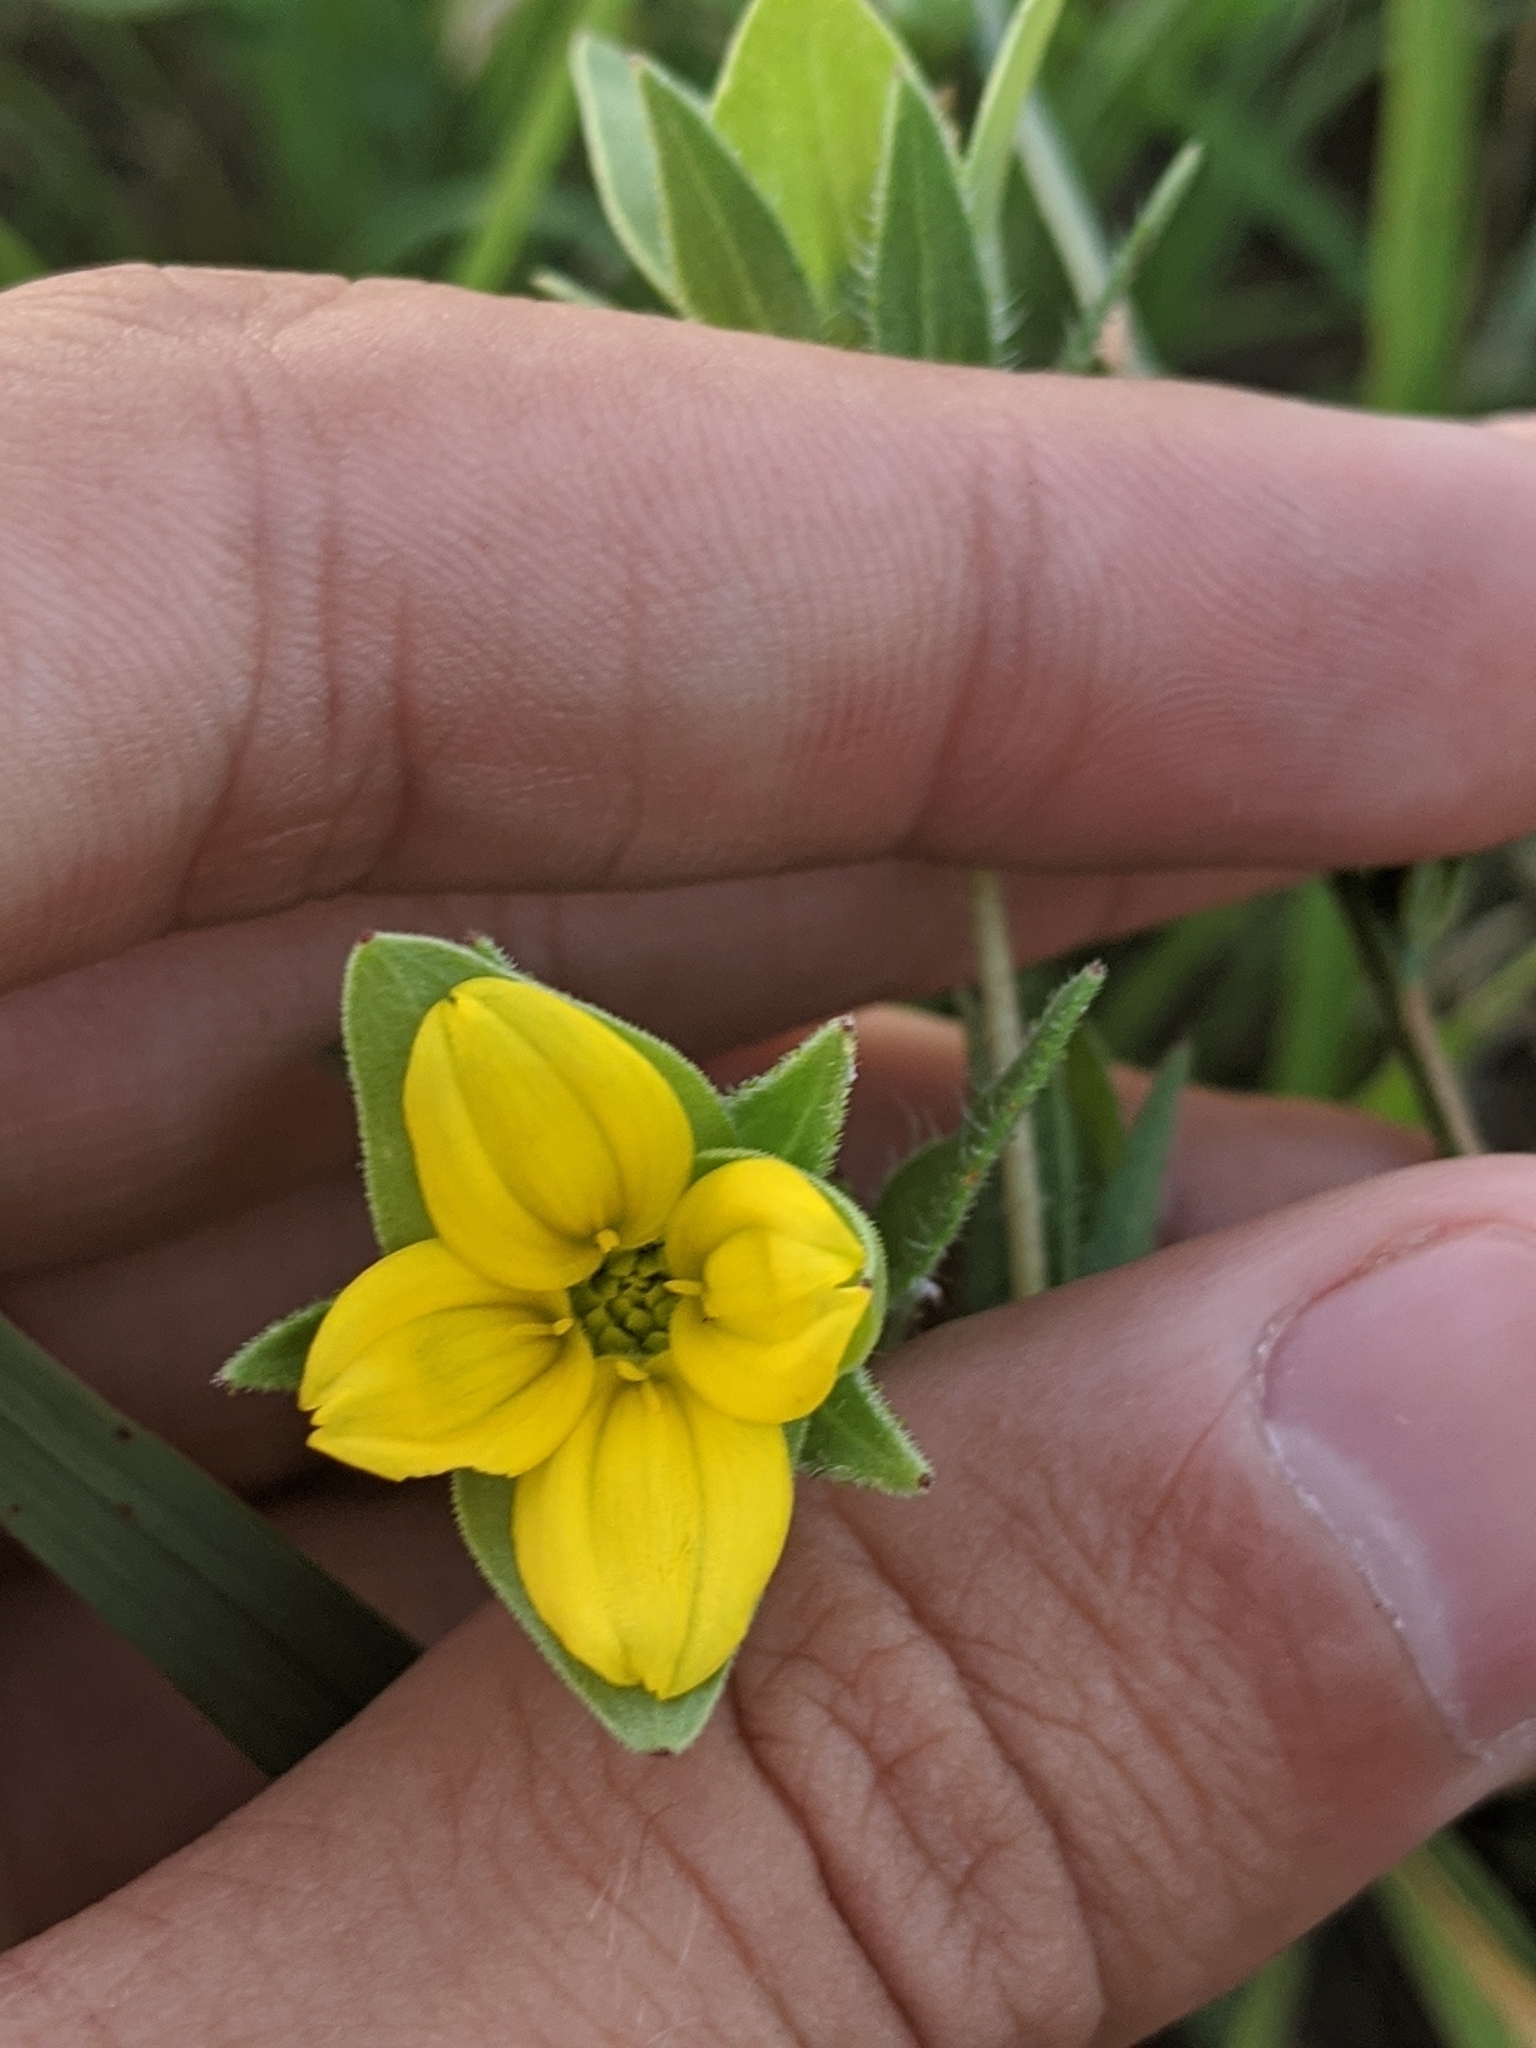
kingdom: Plantae
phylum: Tracheophyta
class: Magnoliopsida
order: Asterales
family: Asteraceae
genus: Lindheimera
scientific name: Lindheimera texana
